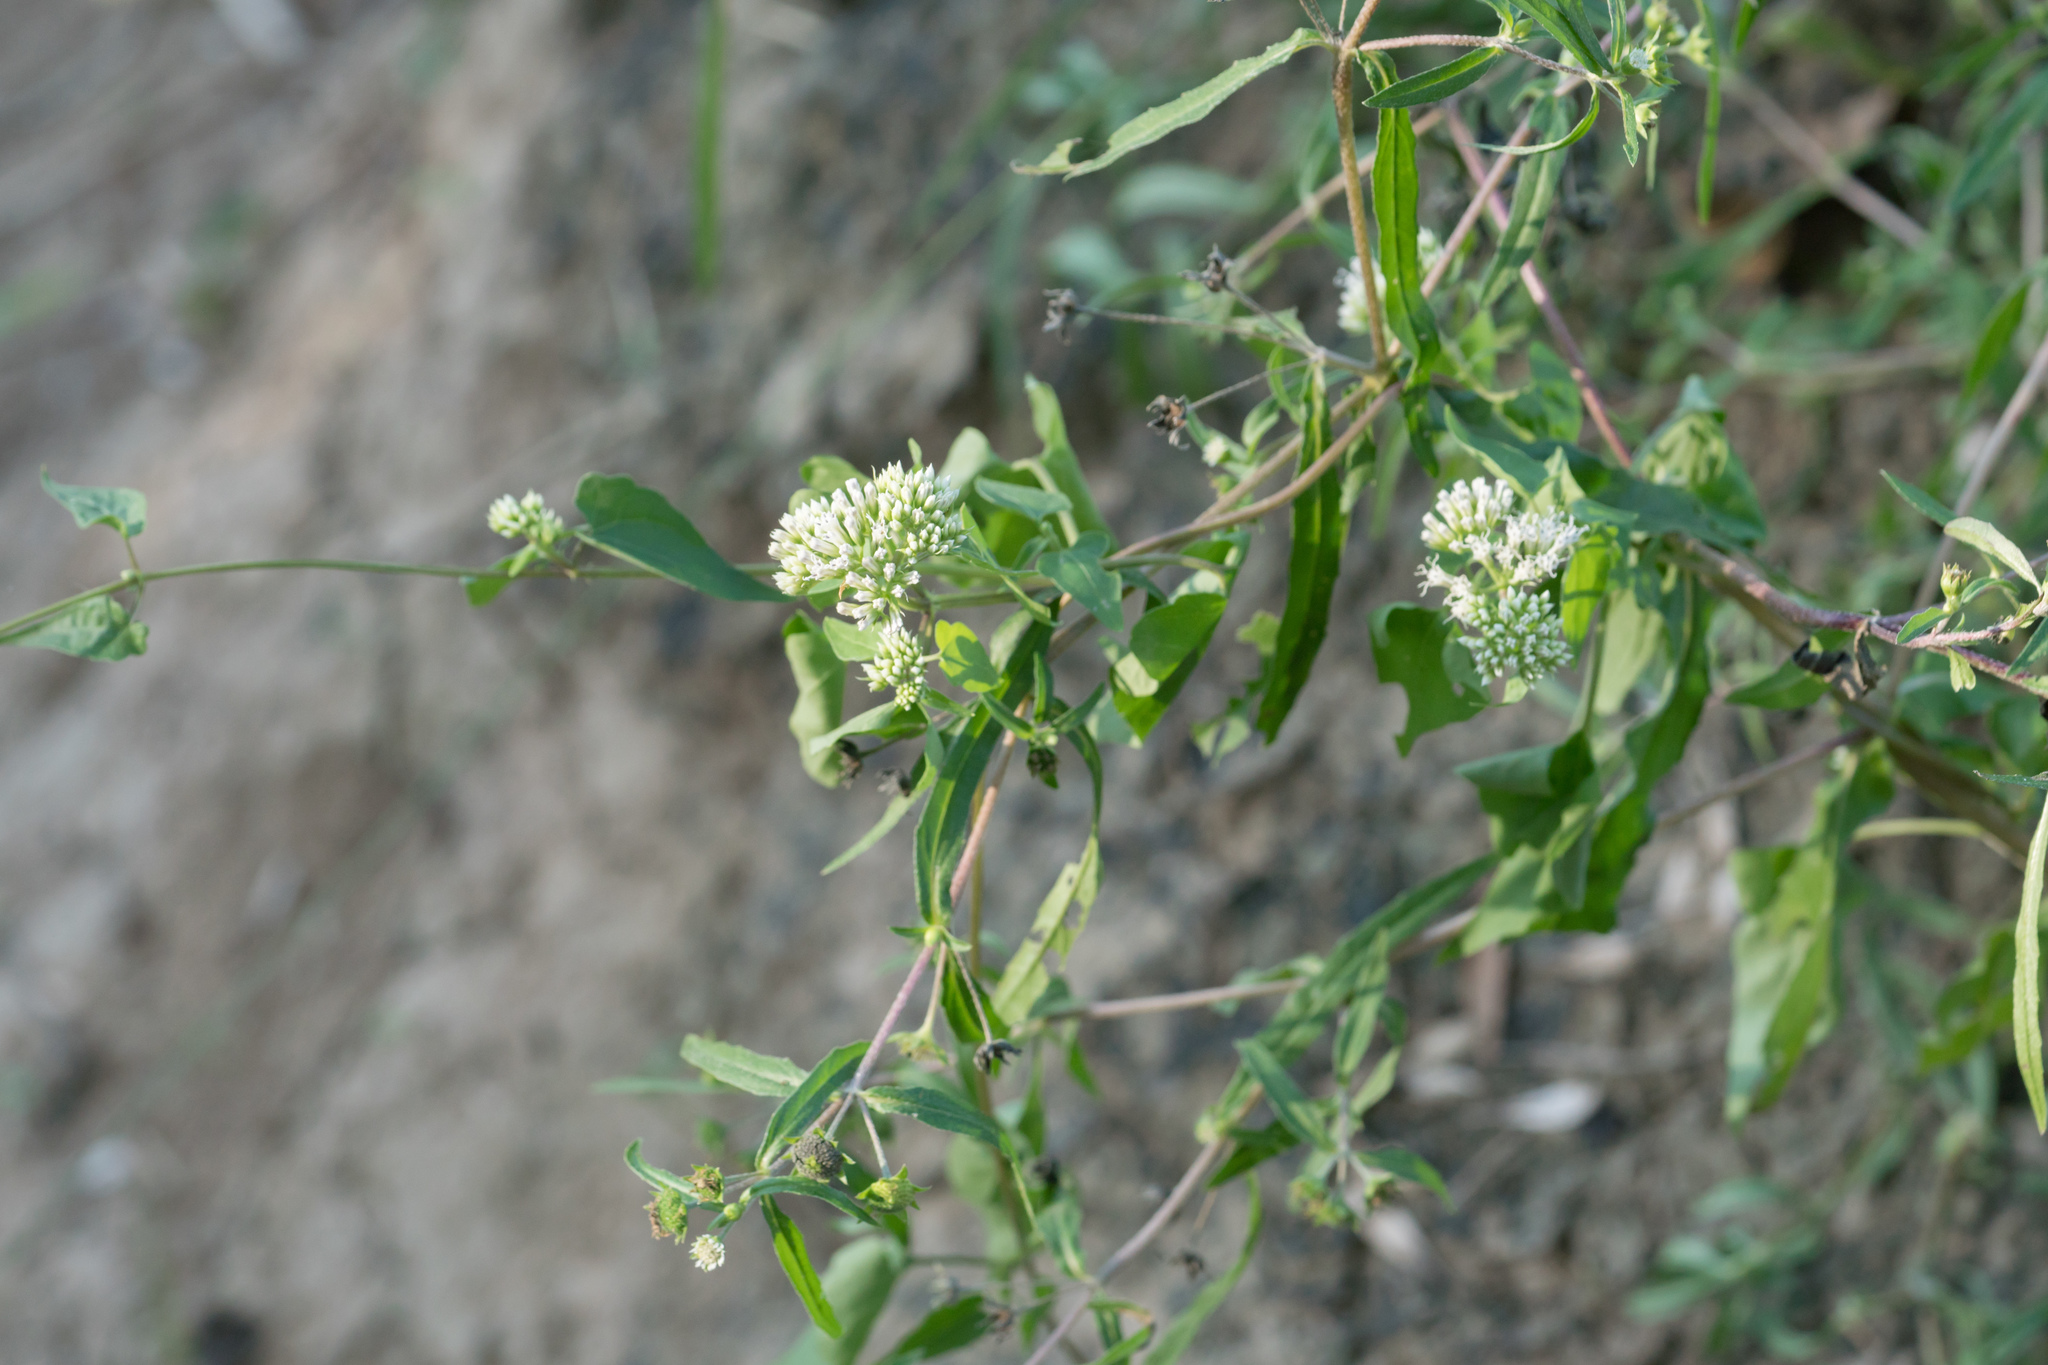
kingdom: Plantae
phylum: Tracheophyta
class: Magnoliopsida
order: Asterales
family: Asteraceae
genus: Mikania
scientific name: Mikania scandens
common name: Climbing hempvine
